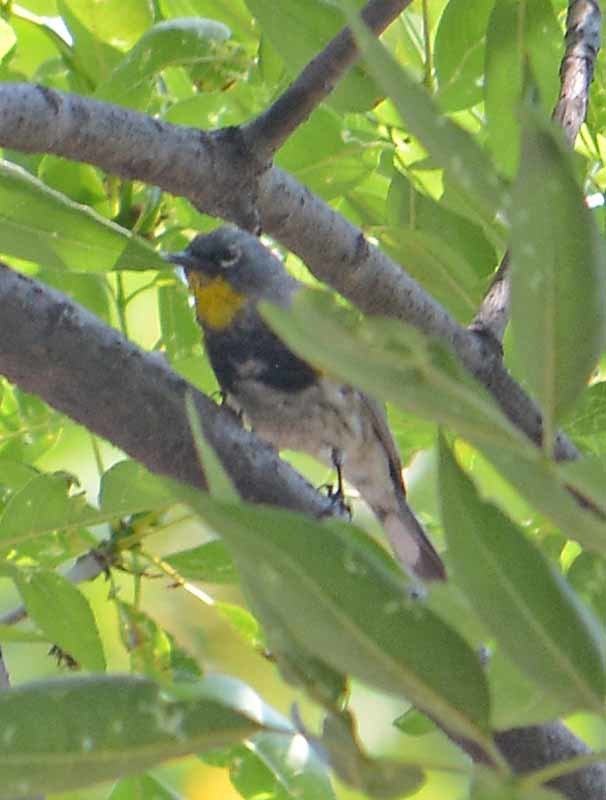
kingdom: Animalia
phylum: Chordata
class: Aves
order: Passeriformes
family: Parulidae
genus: Setophaga
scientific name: Setophaga auduboni
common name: Audubon's warbler
